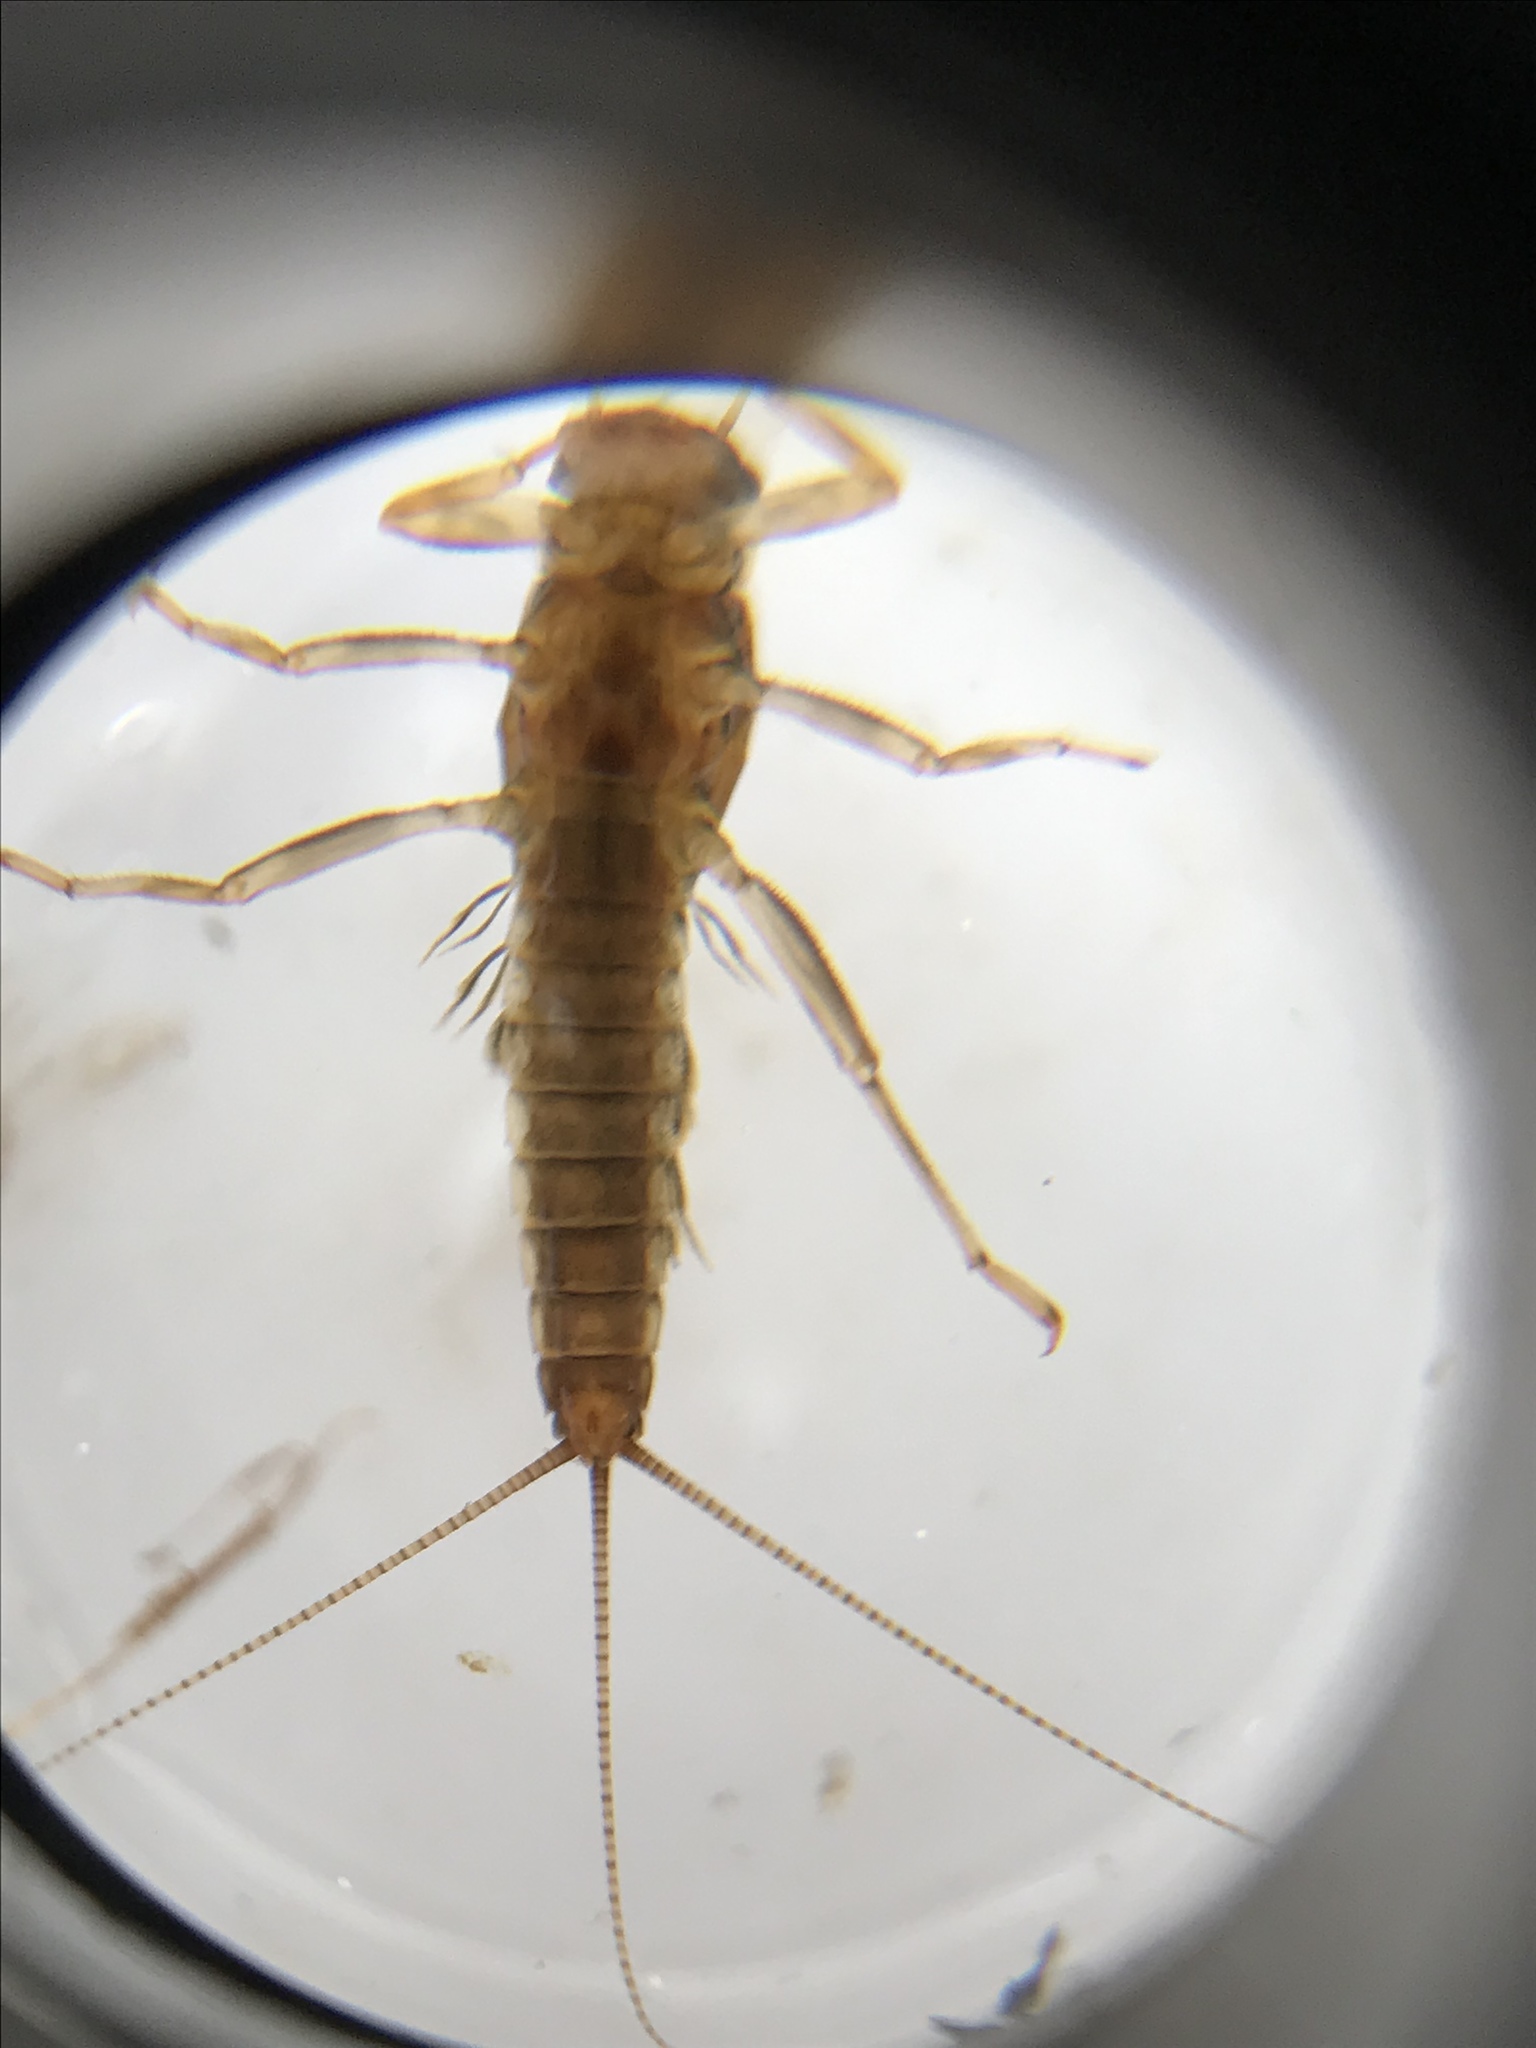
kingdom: Animalia
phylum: Arthropoda
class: Insecta
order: Ephemeroptera
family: Leptophlebiidae
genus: Atalophlebioides
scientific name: Atalophlebioides cromwelli
